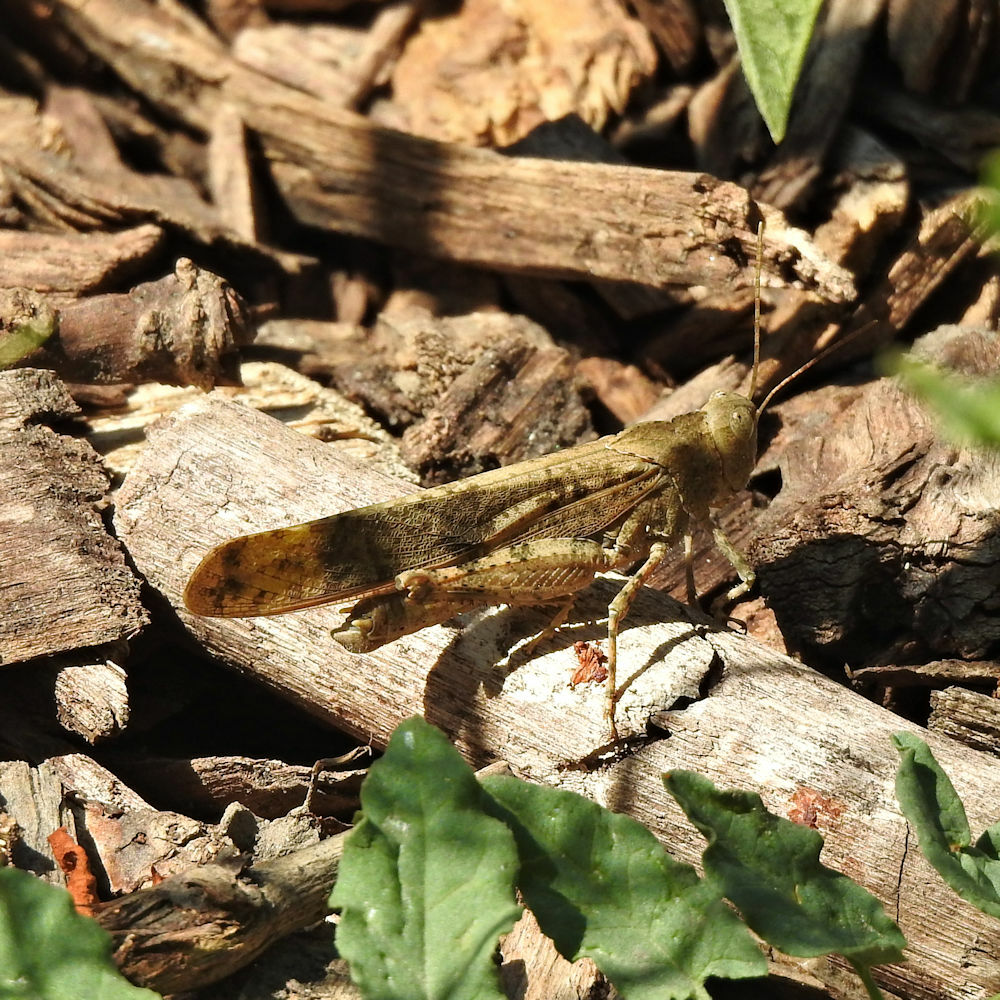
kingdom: Animalia
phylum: Arthropoda
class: Insecta
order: Orthoptera
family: Acrididae
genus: Dissosteira
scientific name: Dissosteira carolina
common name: Carolina grasshopper
